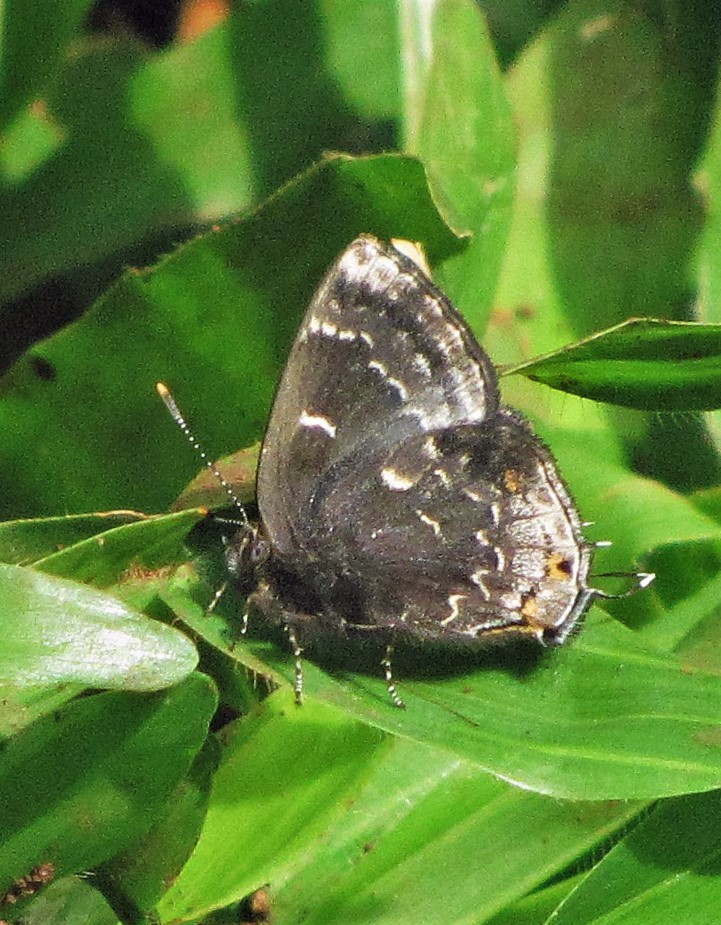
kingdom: Animalia
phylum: Arthropoda
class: Insecta
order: Lepidoptera
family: Lycaenidae
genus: Ocaria
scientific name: Ocaria ocrisia
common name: Black hairstreak
